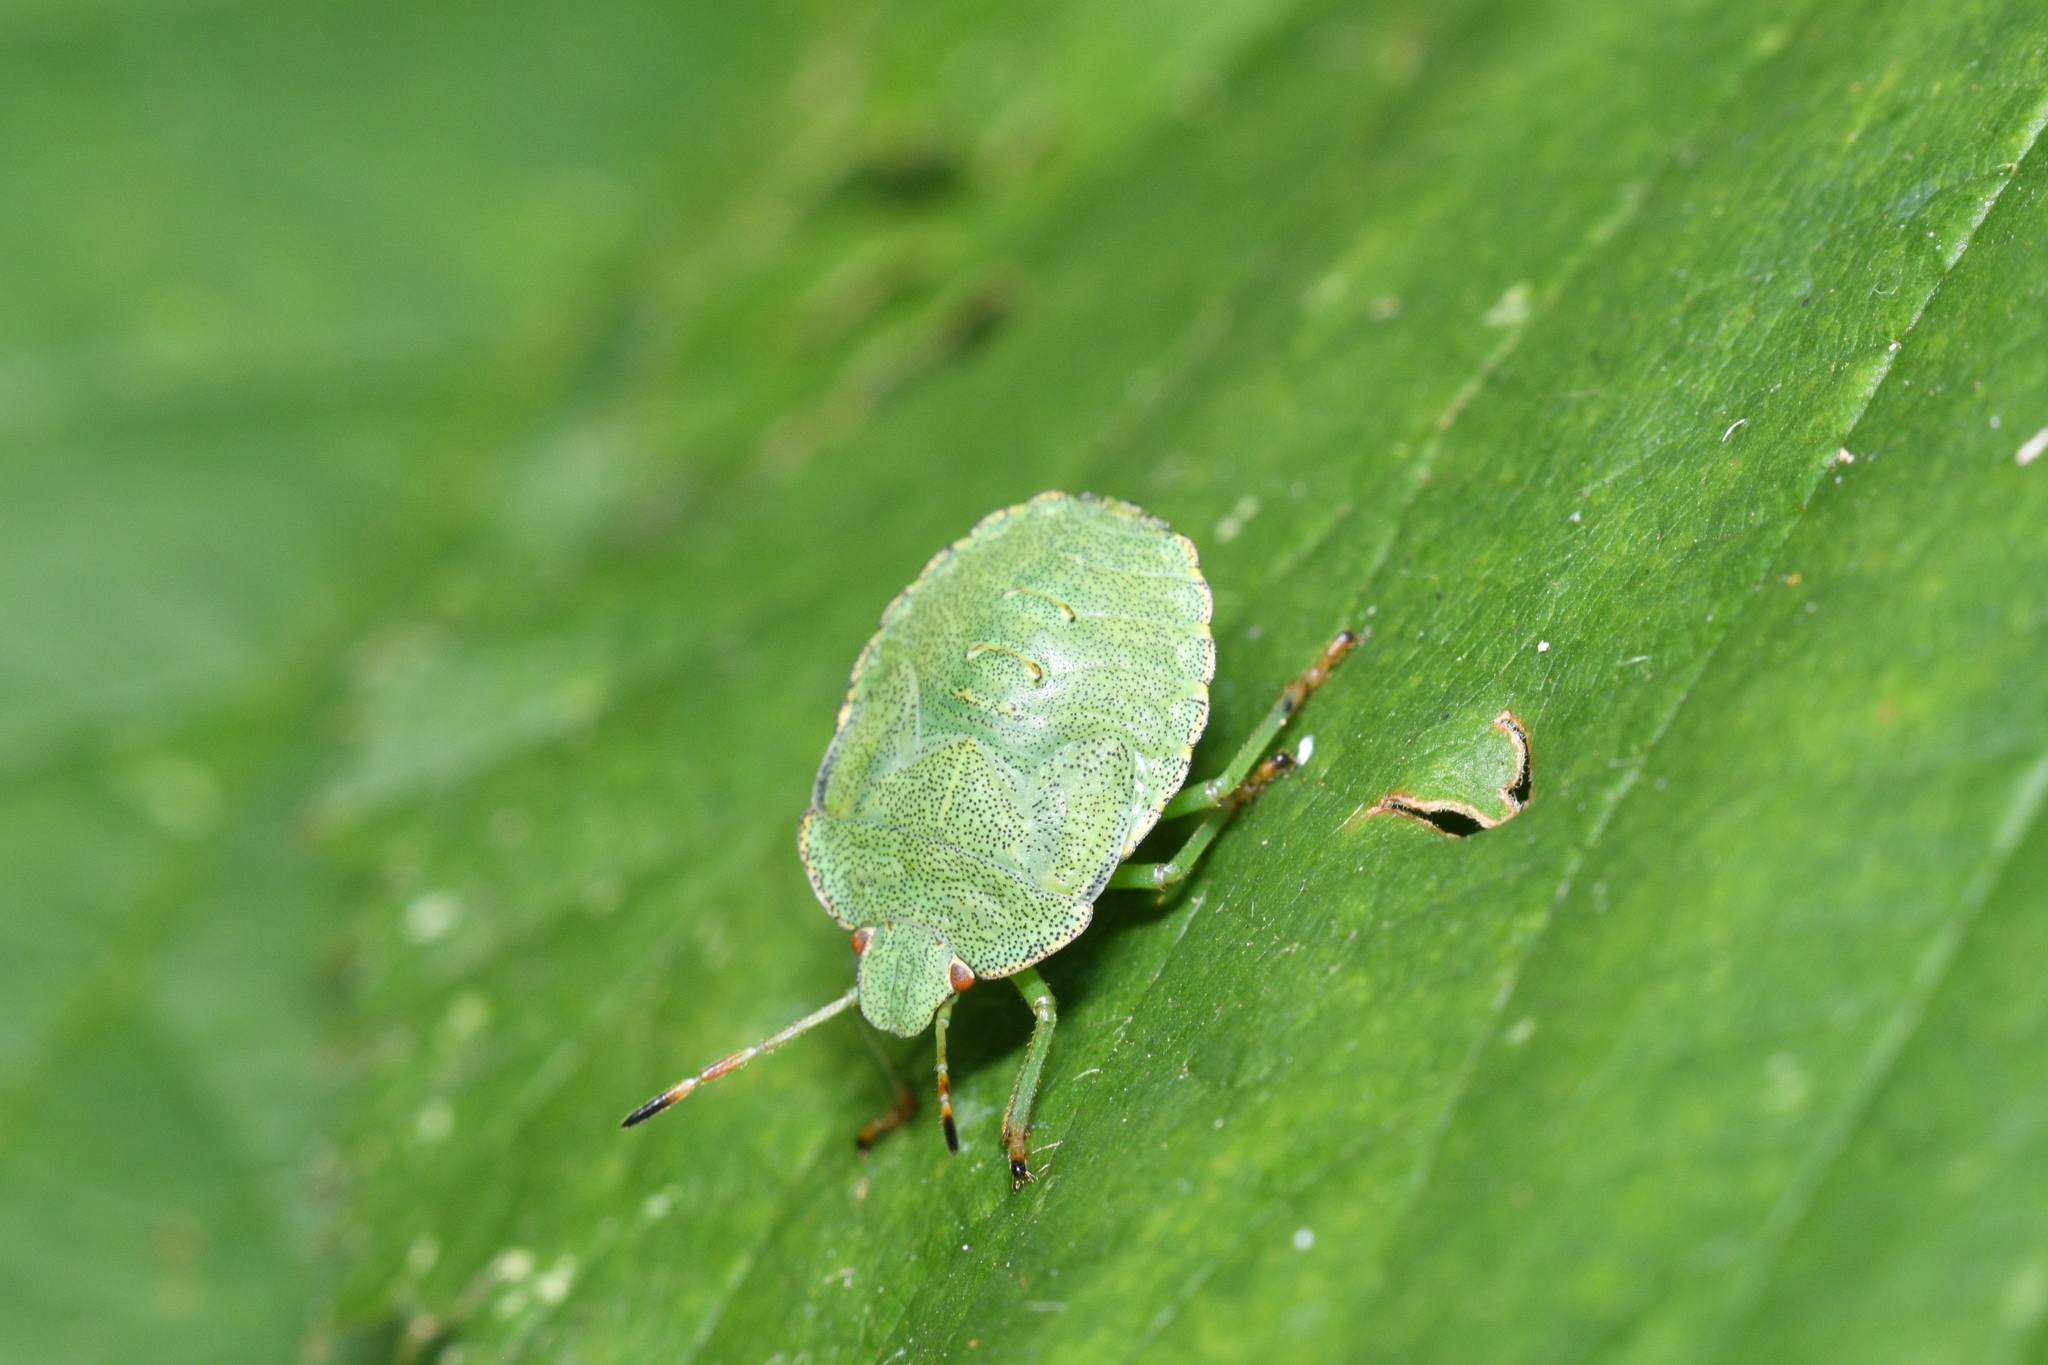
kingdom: Animalia
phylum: Arthropoda
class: Insecta
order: Hemiptera
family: Pentatomidae
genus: Palomena
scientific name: Palomena prasina
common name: Green shieldbug
